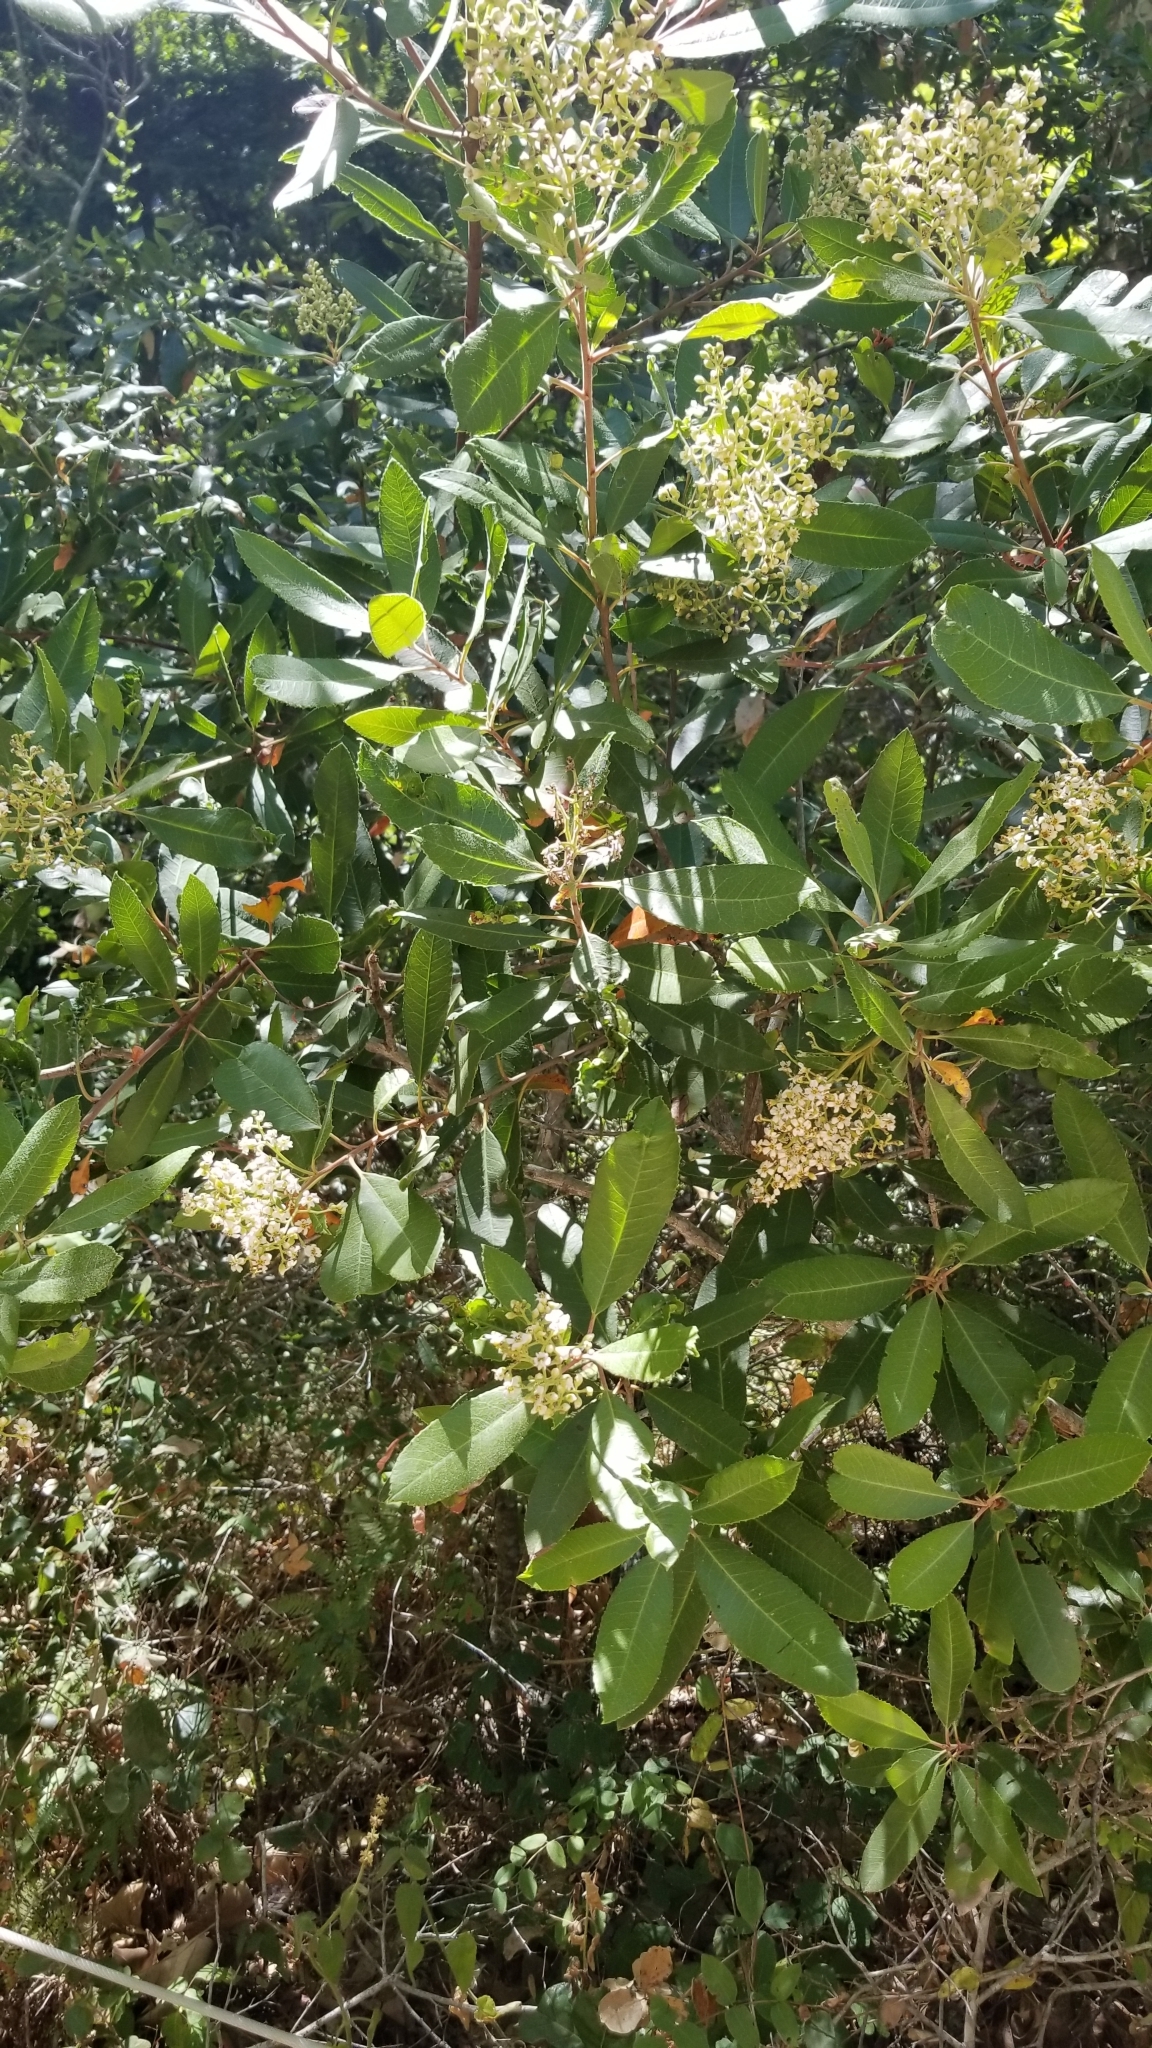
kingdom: Plantae
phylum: Tracheophyta
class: Magnoliopsida
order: Rosales
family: Rosaceae
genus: Heteromeles
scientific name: Heteromeles arbutifolia
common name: California-holly
